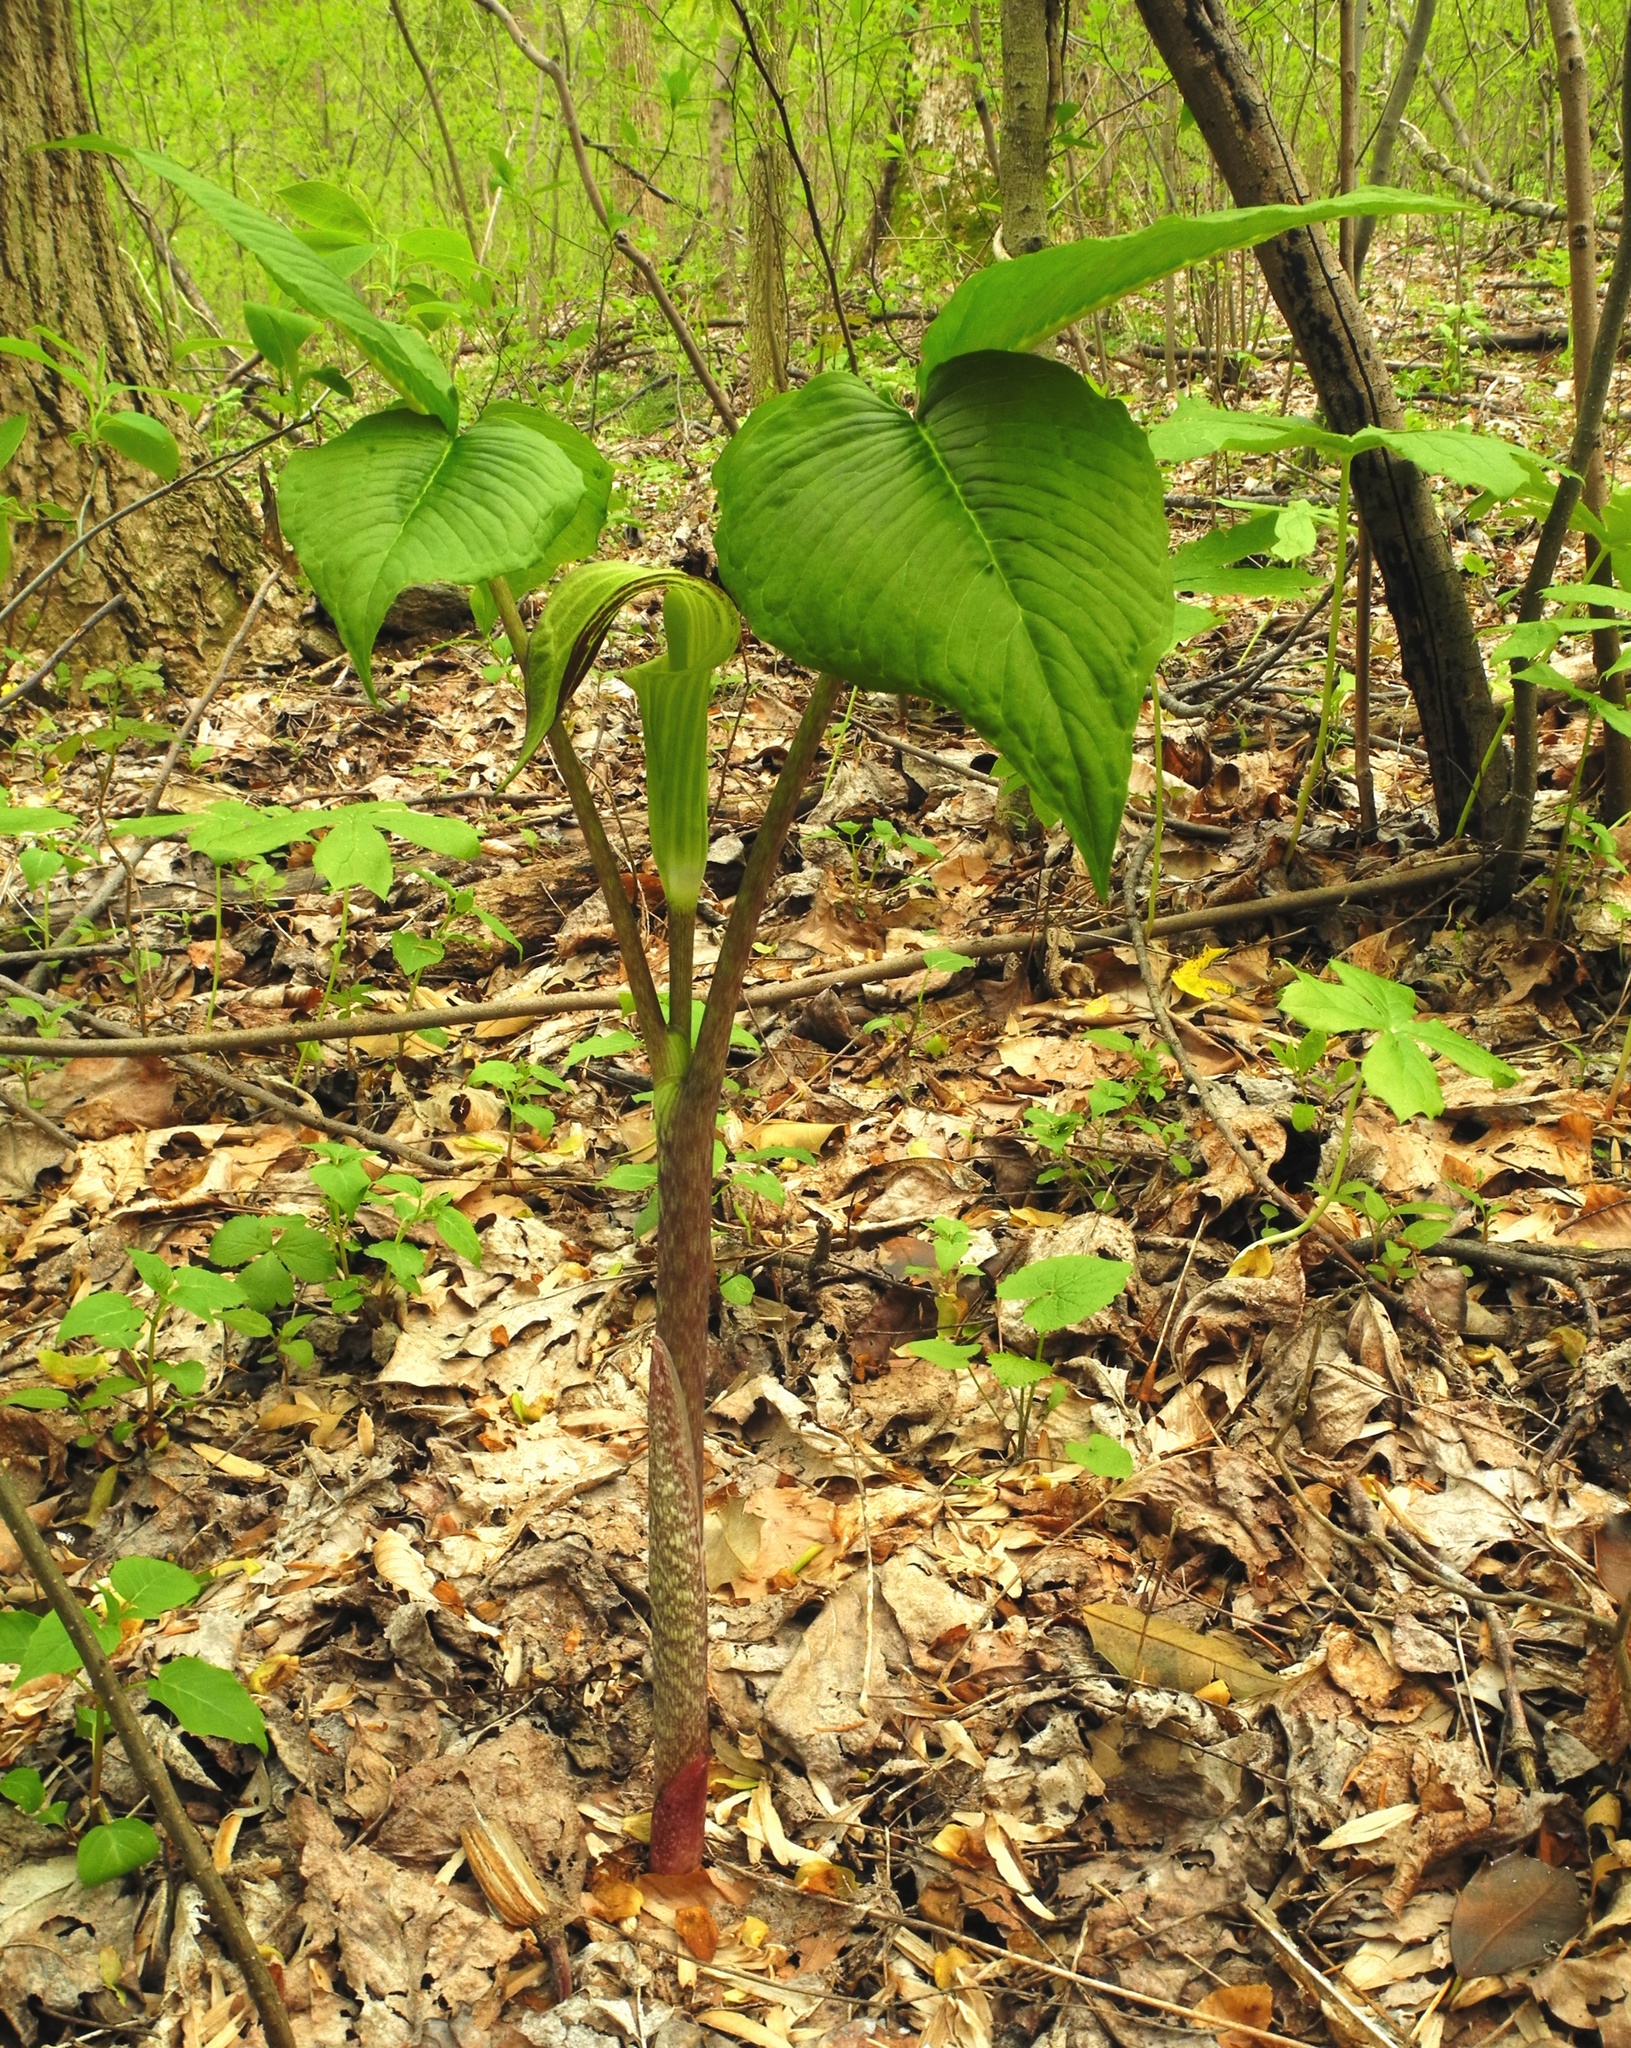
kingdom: Plantae
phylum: Tracheophyta
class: Liliopsida
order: Alismatales
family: Araceae
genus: Arisaema
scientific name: Arisaema triphyllum
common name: Jack-in-the-pulpit
